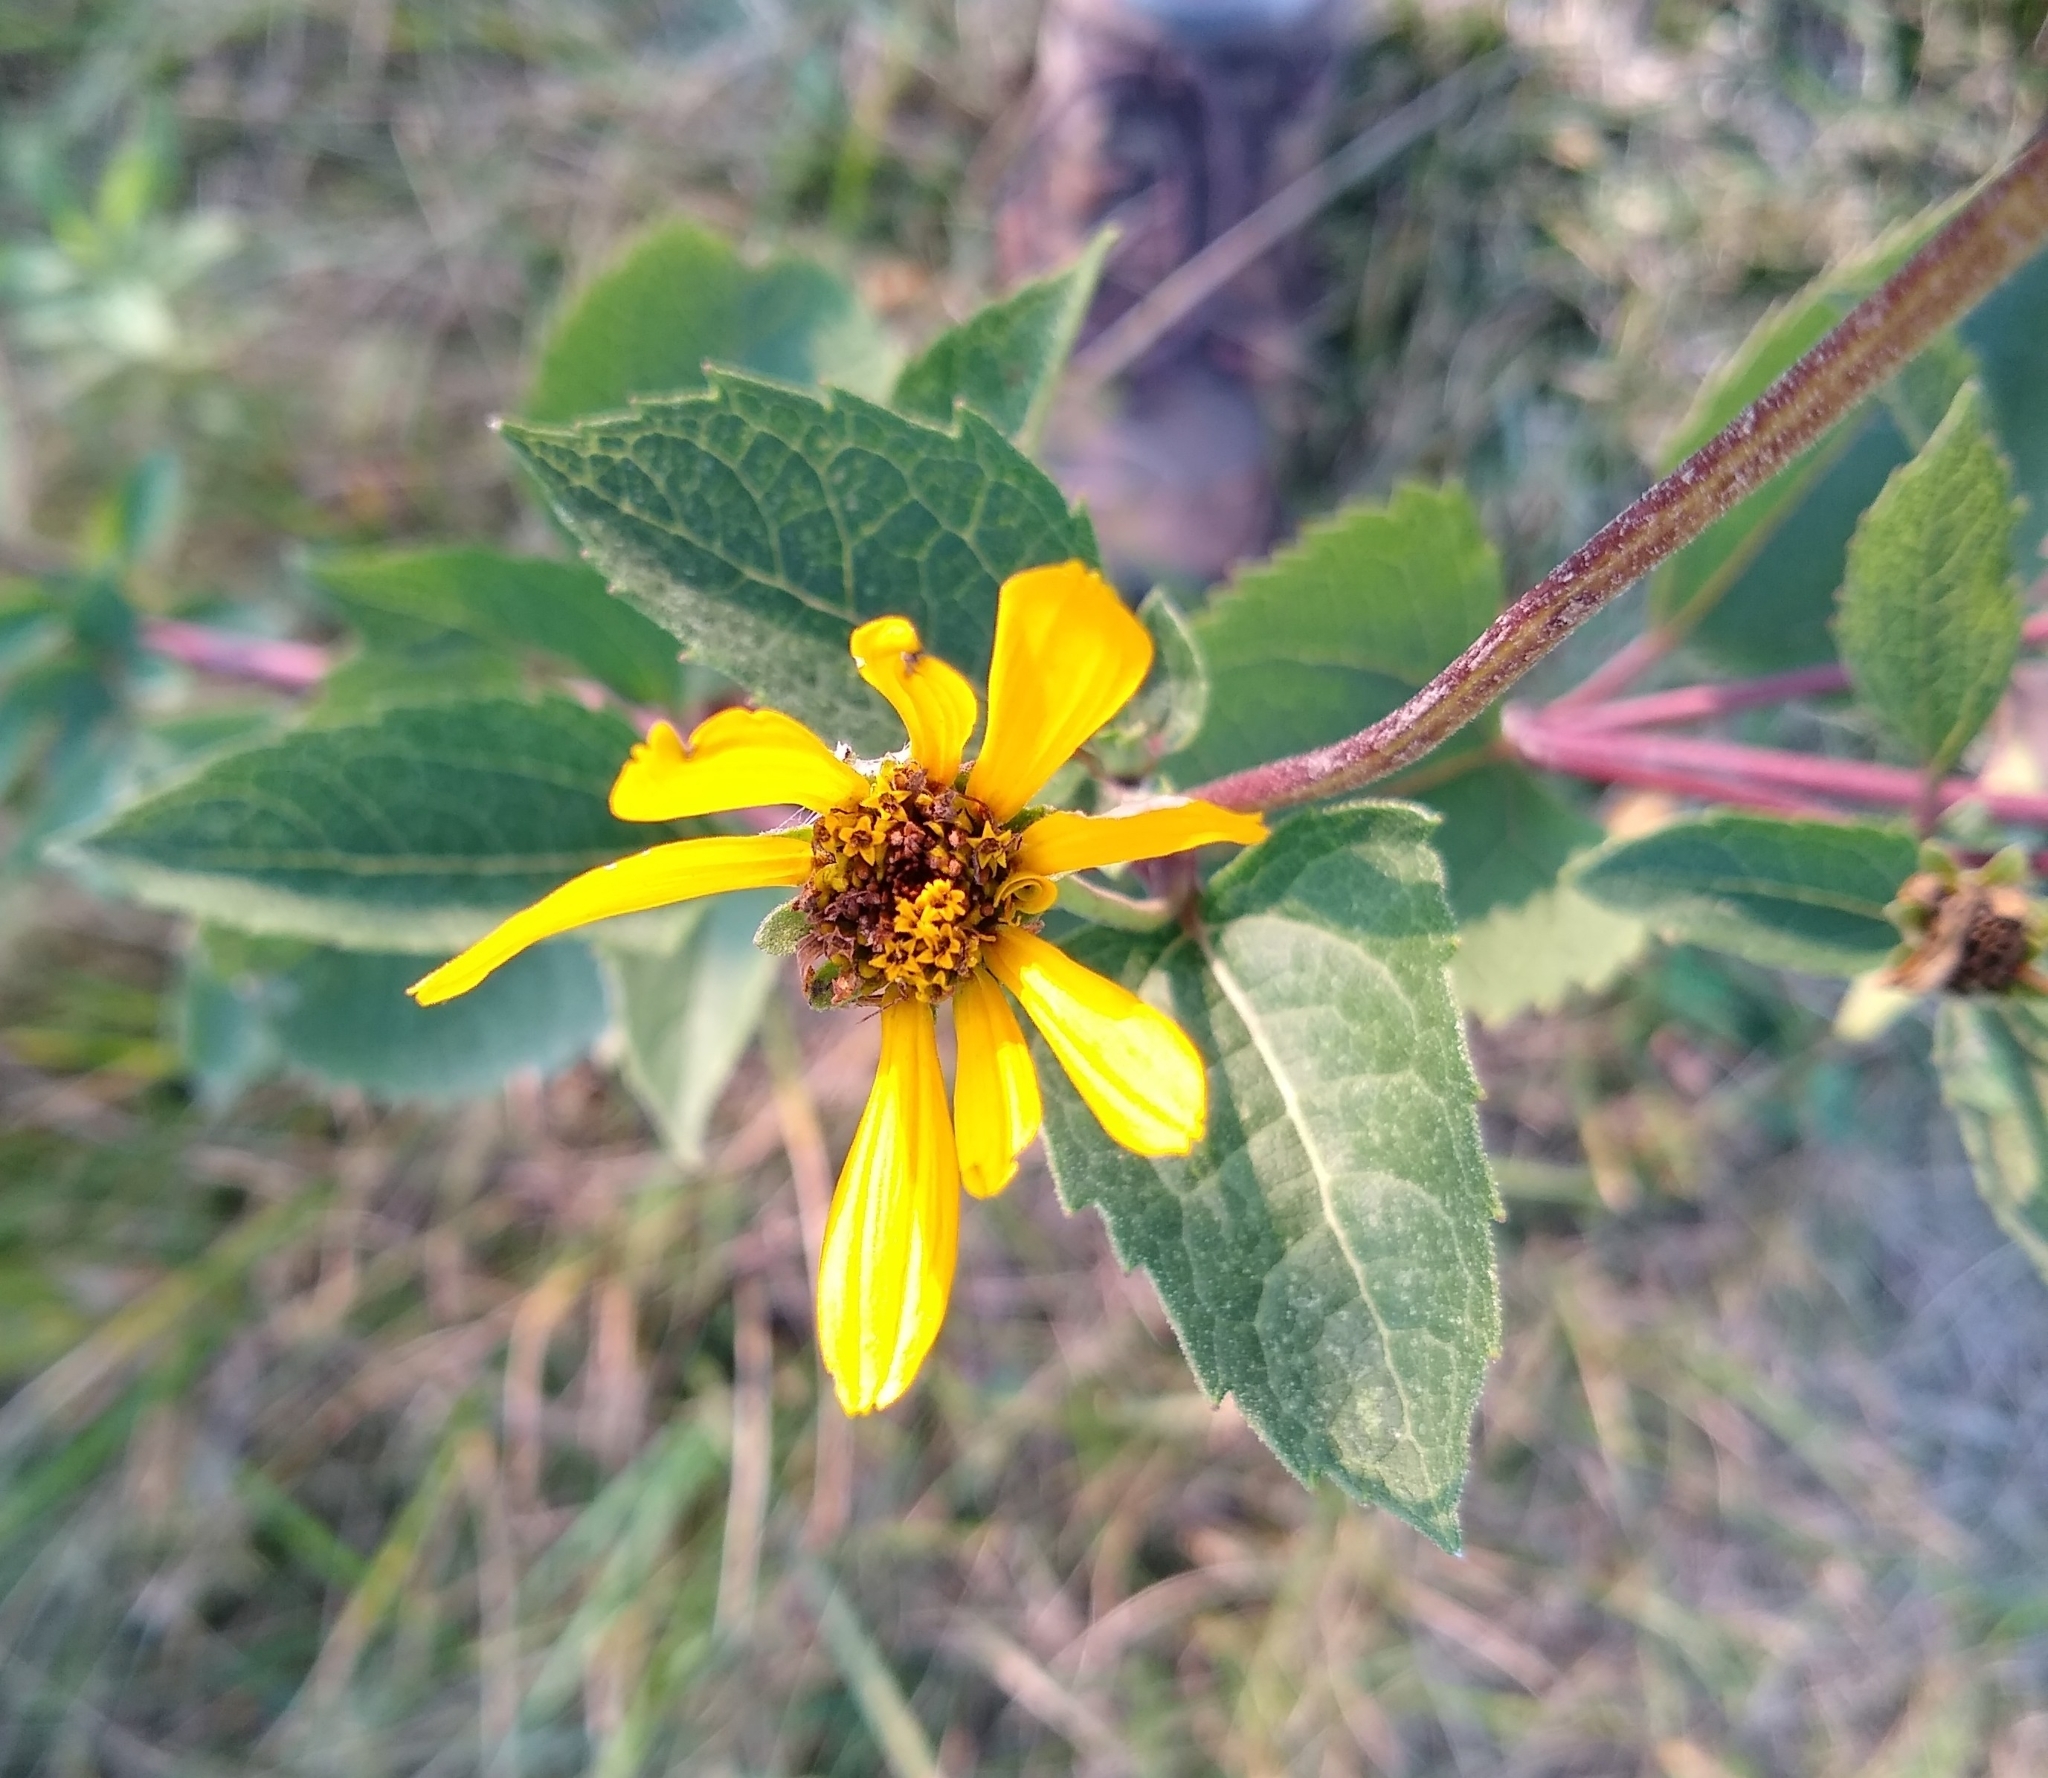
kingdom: Plantae
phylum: Tracheophyta
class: Magnoliopsida
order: Asterales
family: Asteraceae
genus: Heliopsis
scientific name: Heliopsis helianthoides
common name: False sunflower
